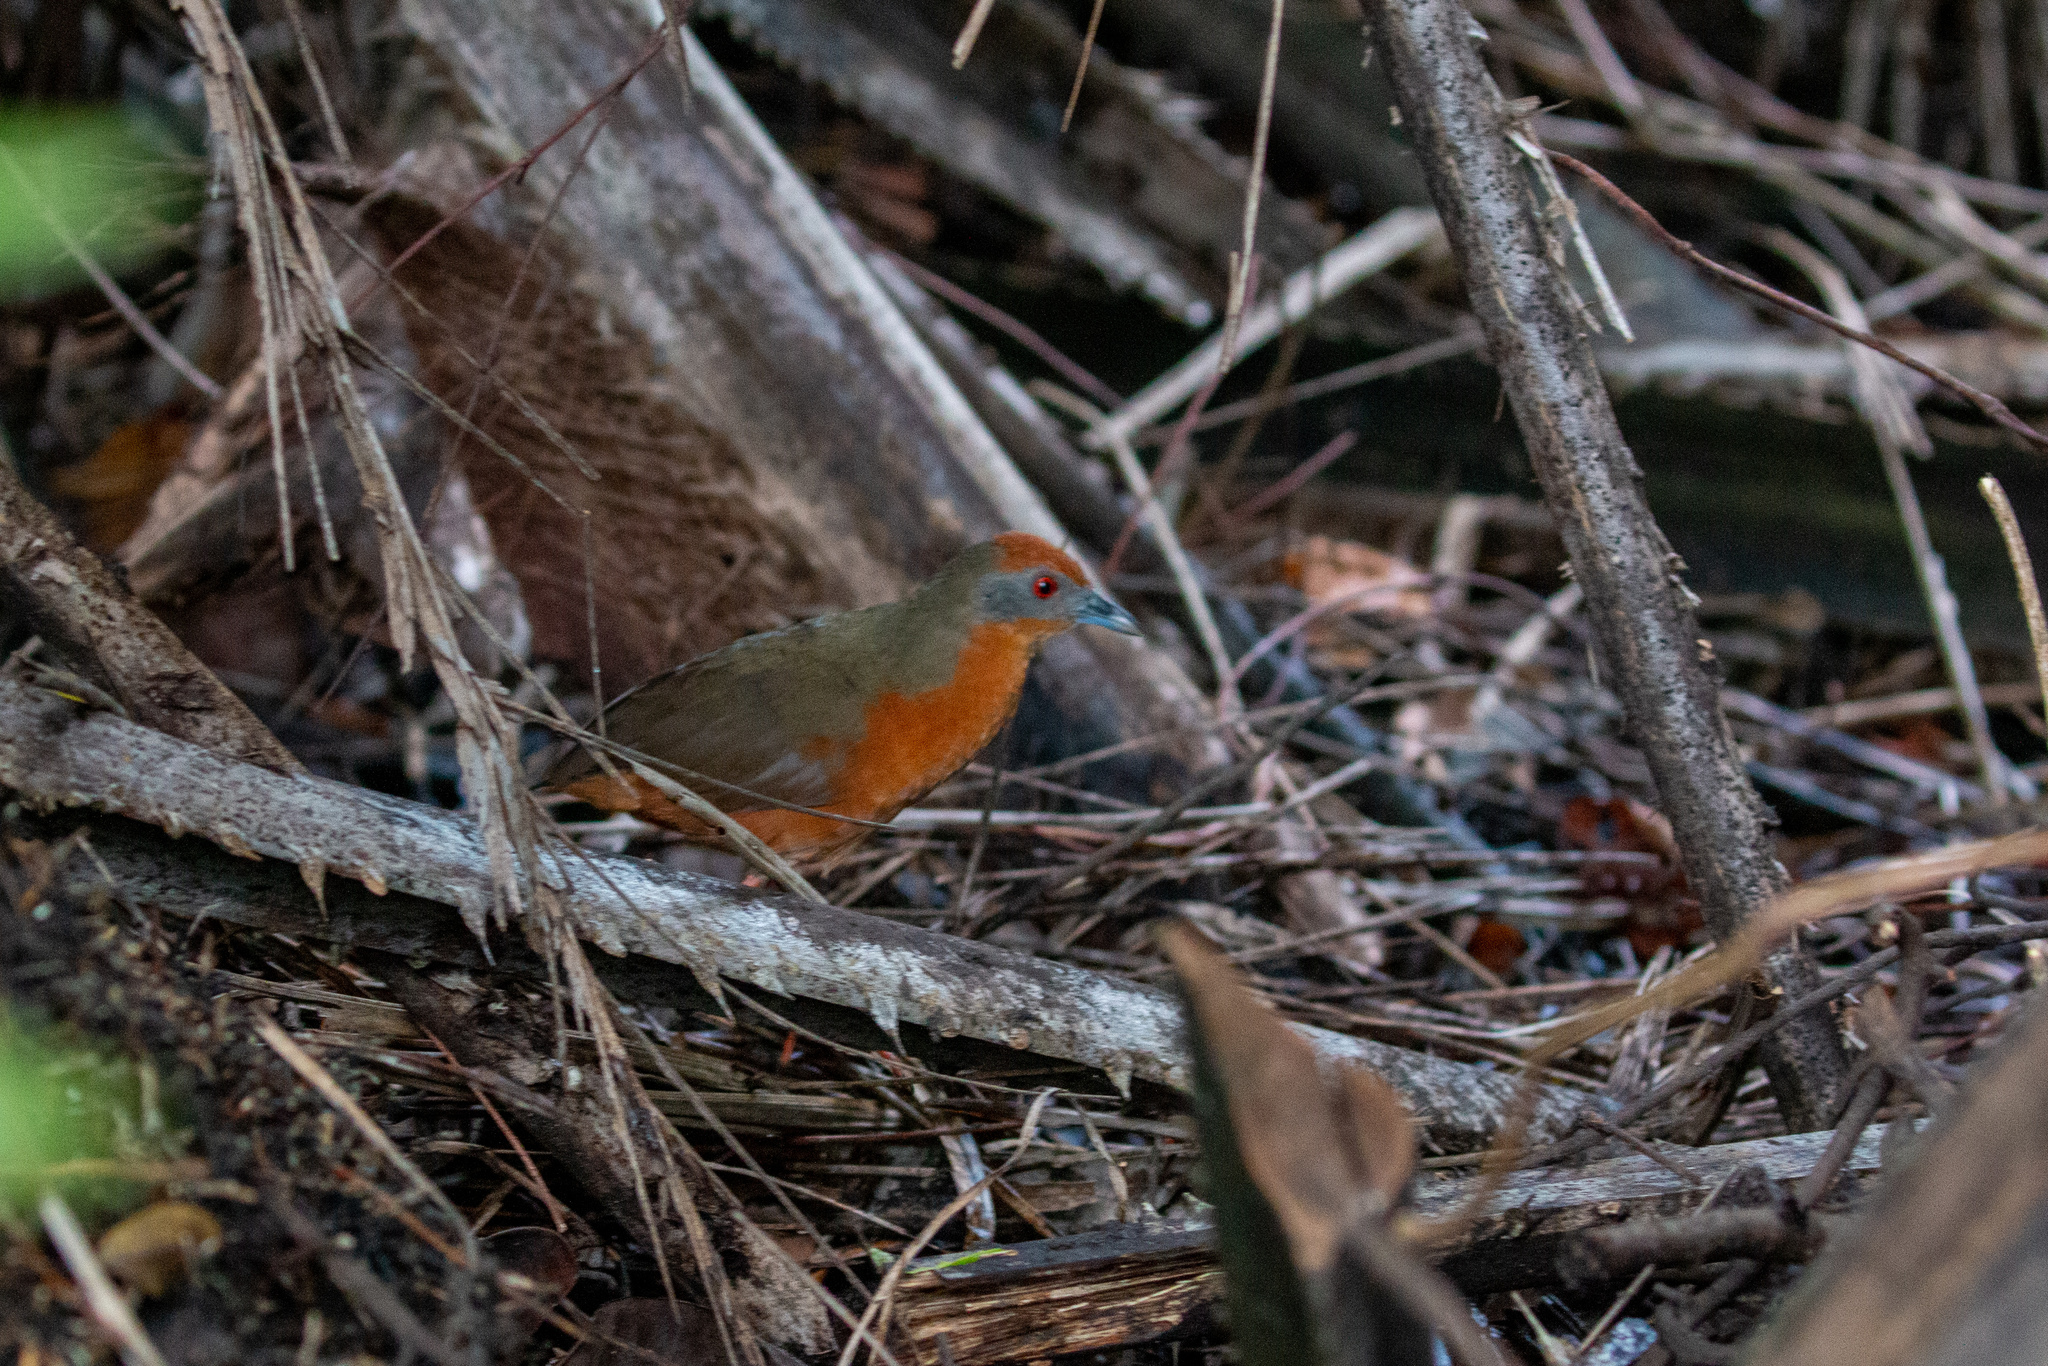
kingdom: Animalia
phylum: Chordata
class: Aves
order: Gruiformes
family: Rallidae
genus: Anurolimnas
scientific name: Anurolimnas viridis
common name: Russet-crowned crake
